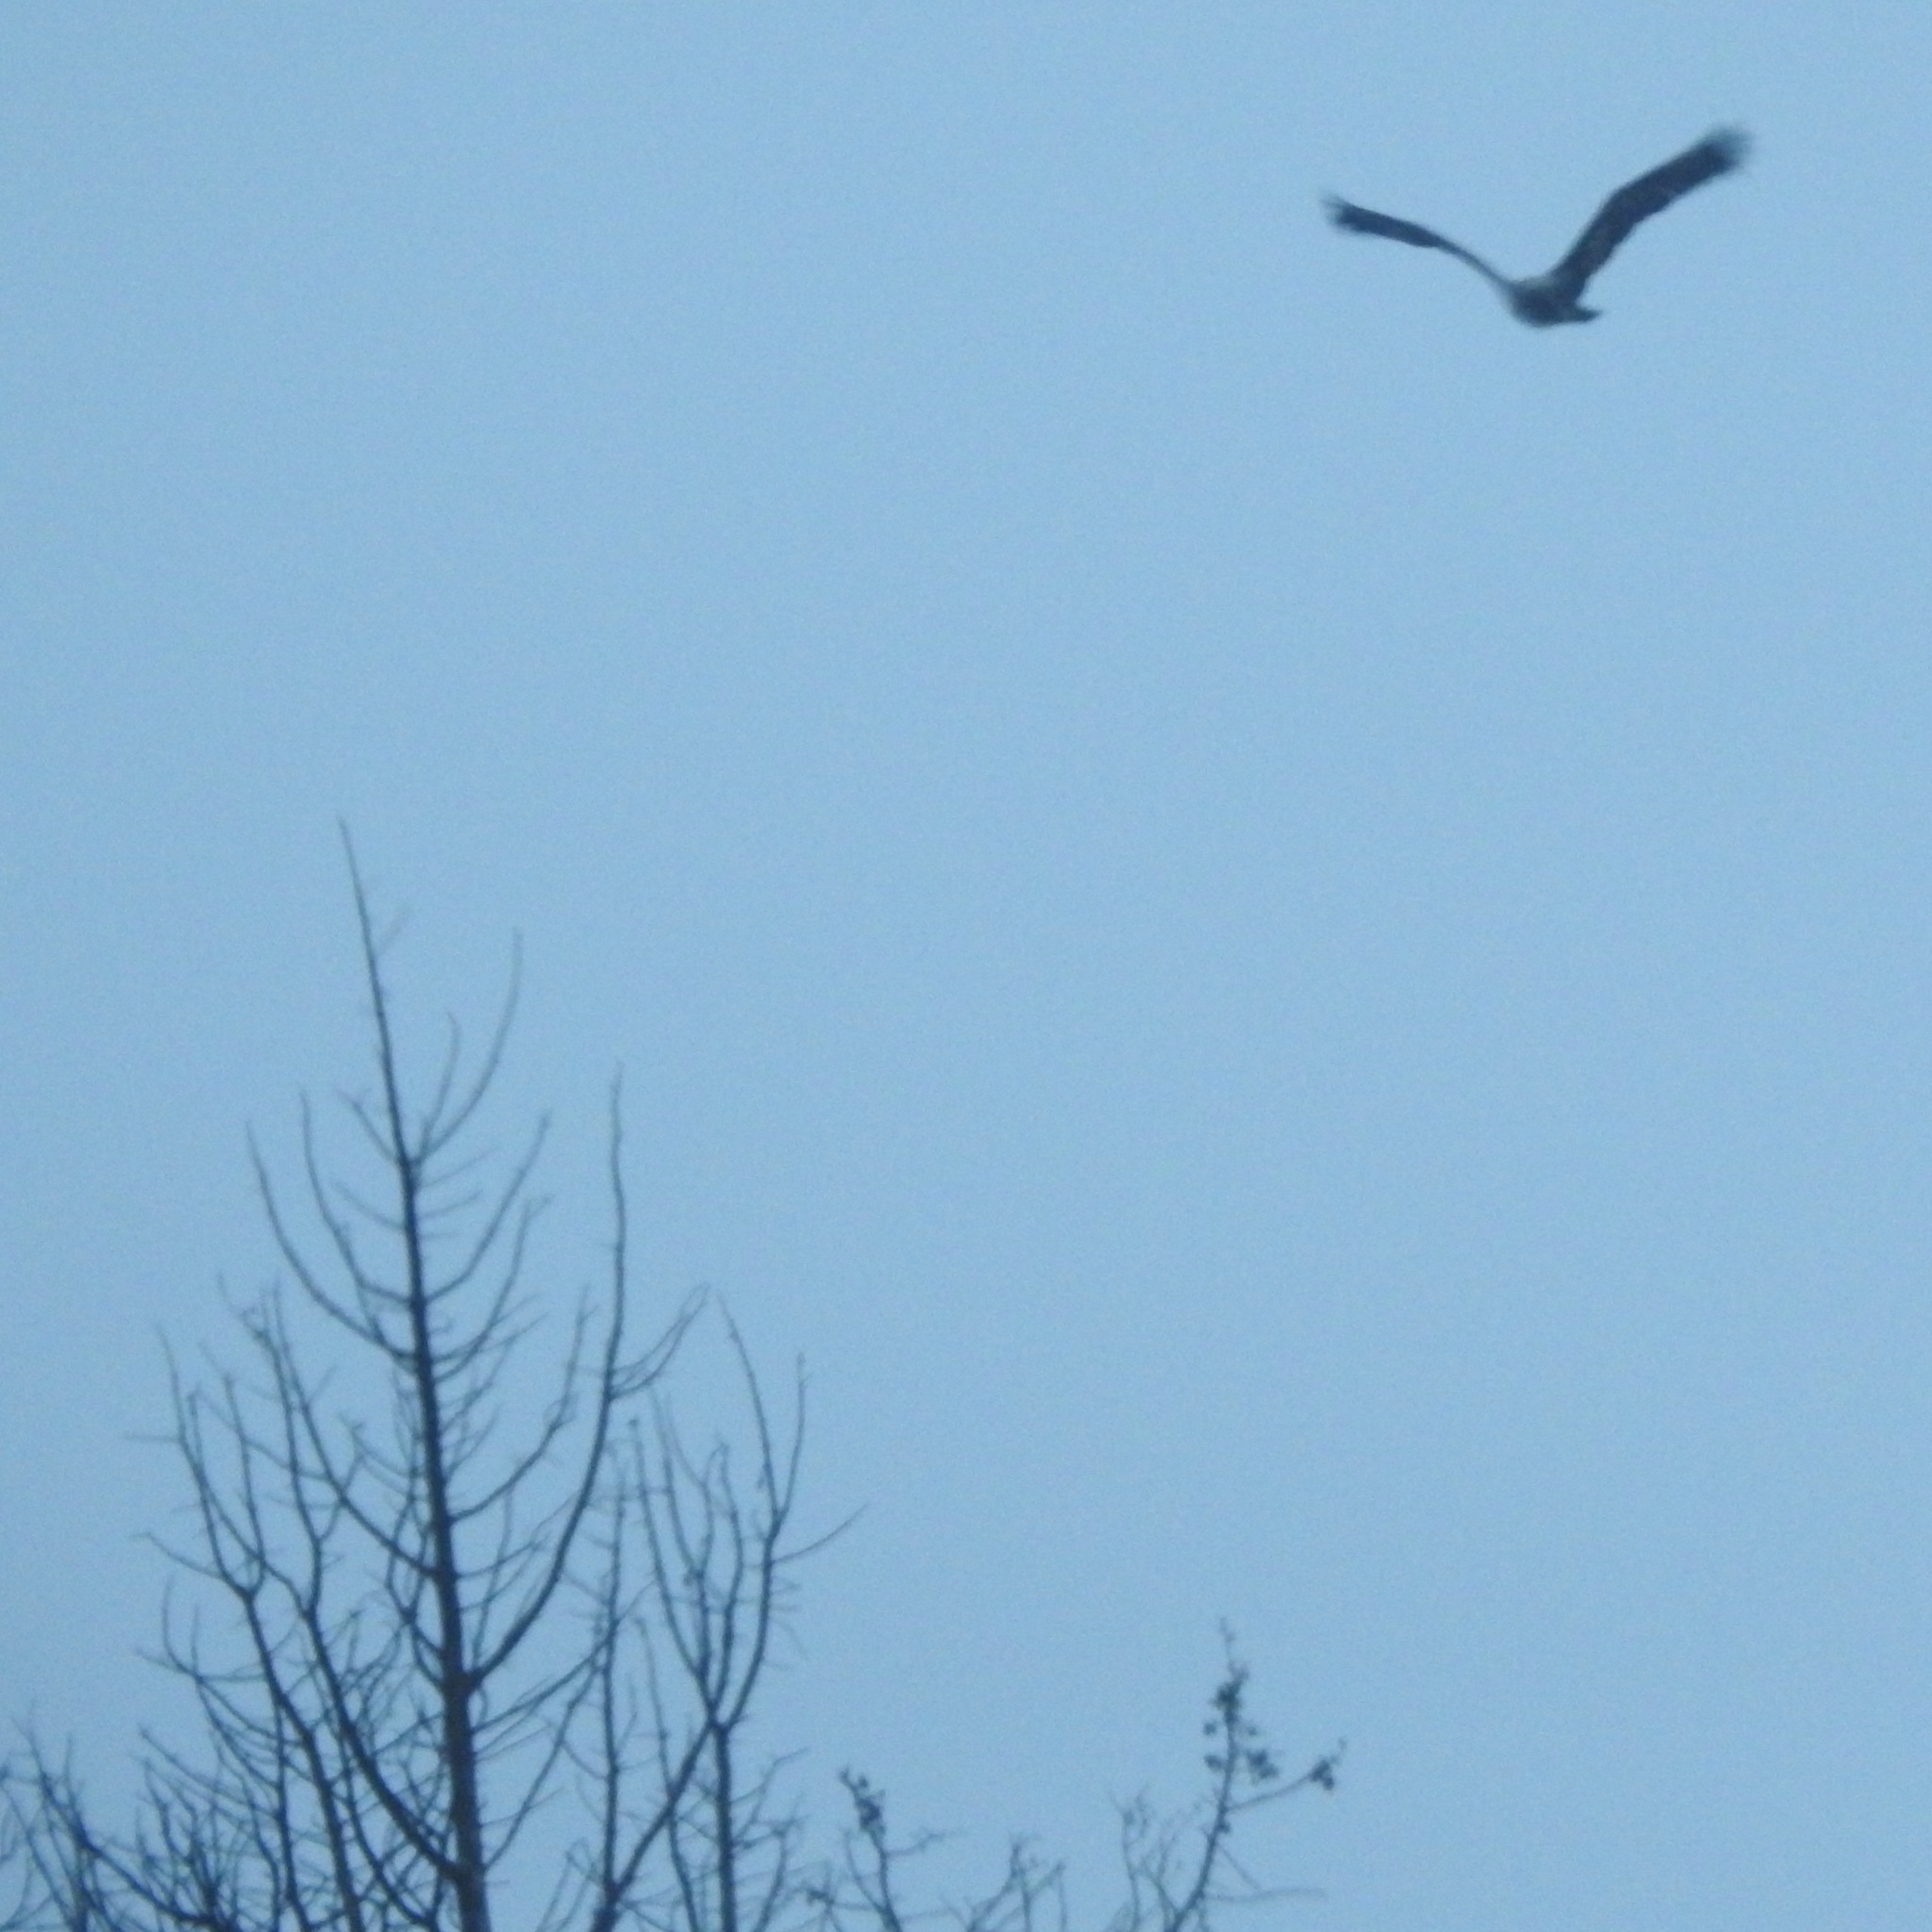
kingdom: Animalia
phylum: Chordata
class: Aves
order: Accipitriformes
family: Accipitridae
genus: Haliaeetus
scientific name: Haliaeetus leucocephalus
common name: Bald eagle
